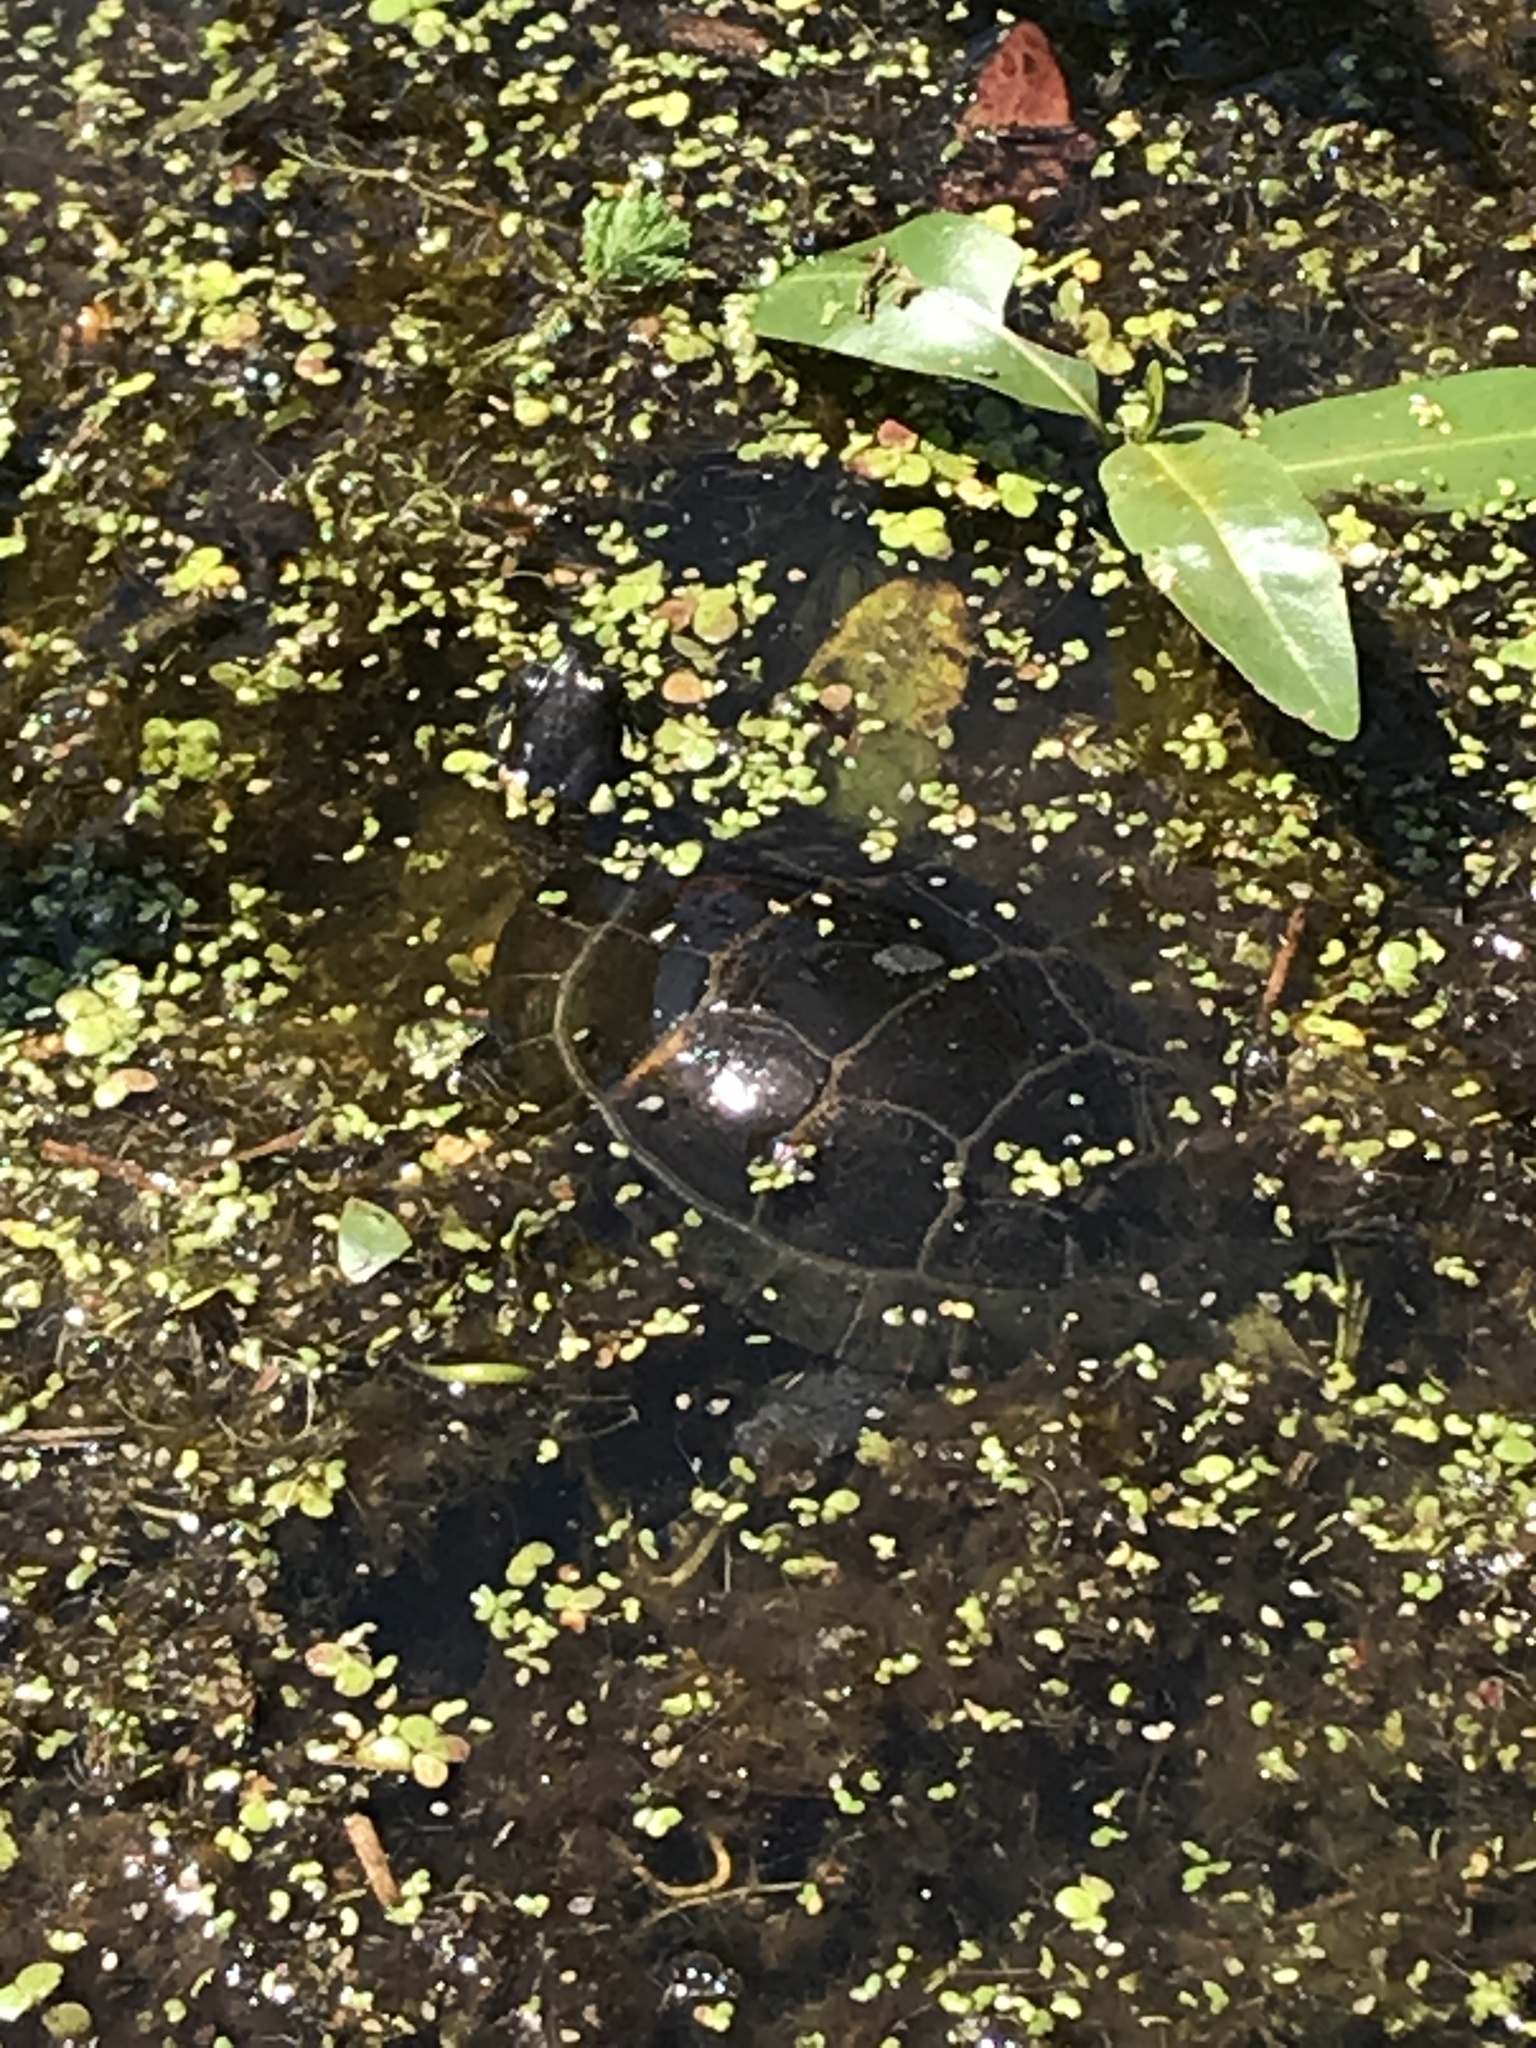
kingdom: Animalia
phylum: Chordata
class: Testudines
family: Emydidae
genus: Chrysemys
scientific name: Chrysemys picta
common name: Painted turtle
